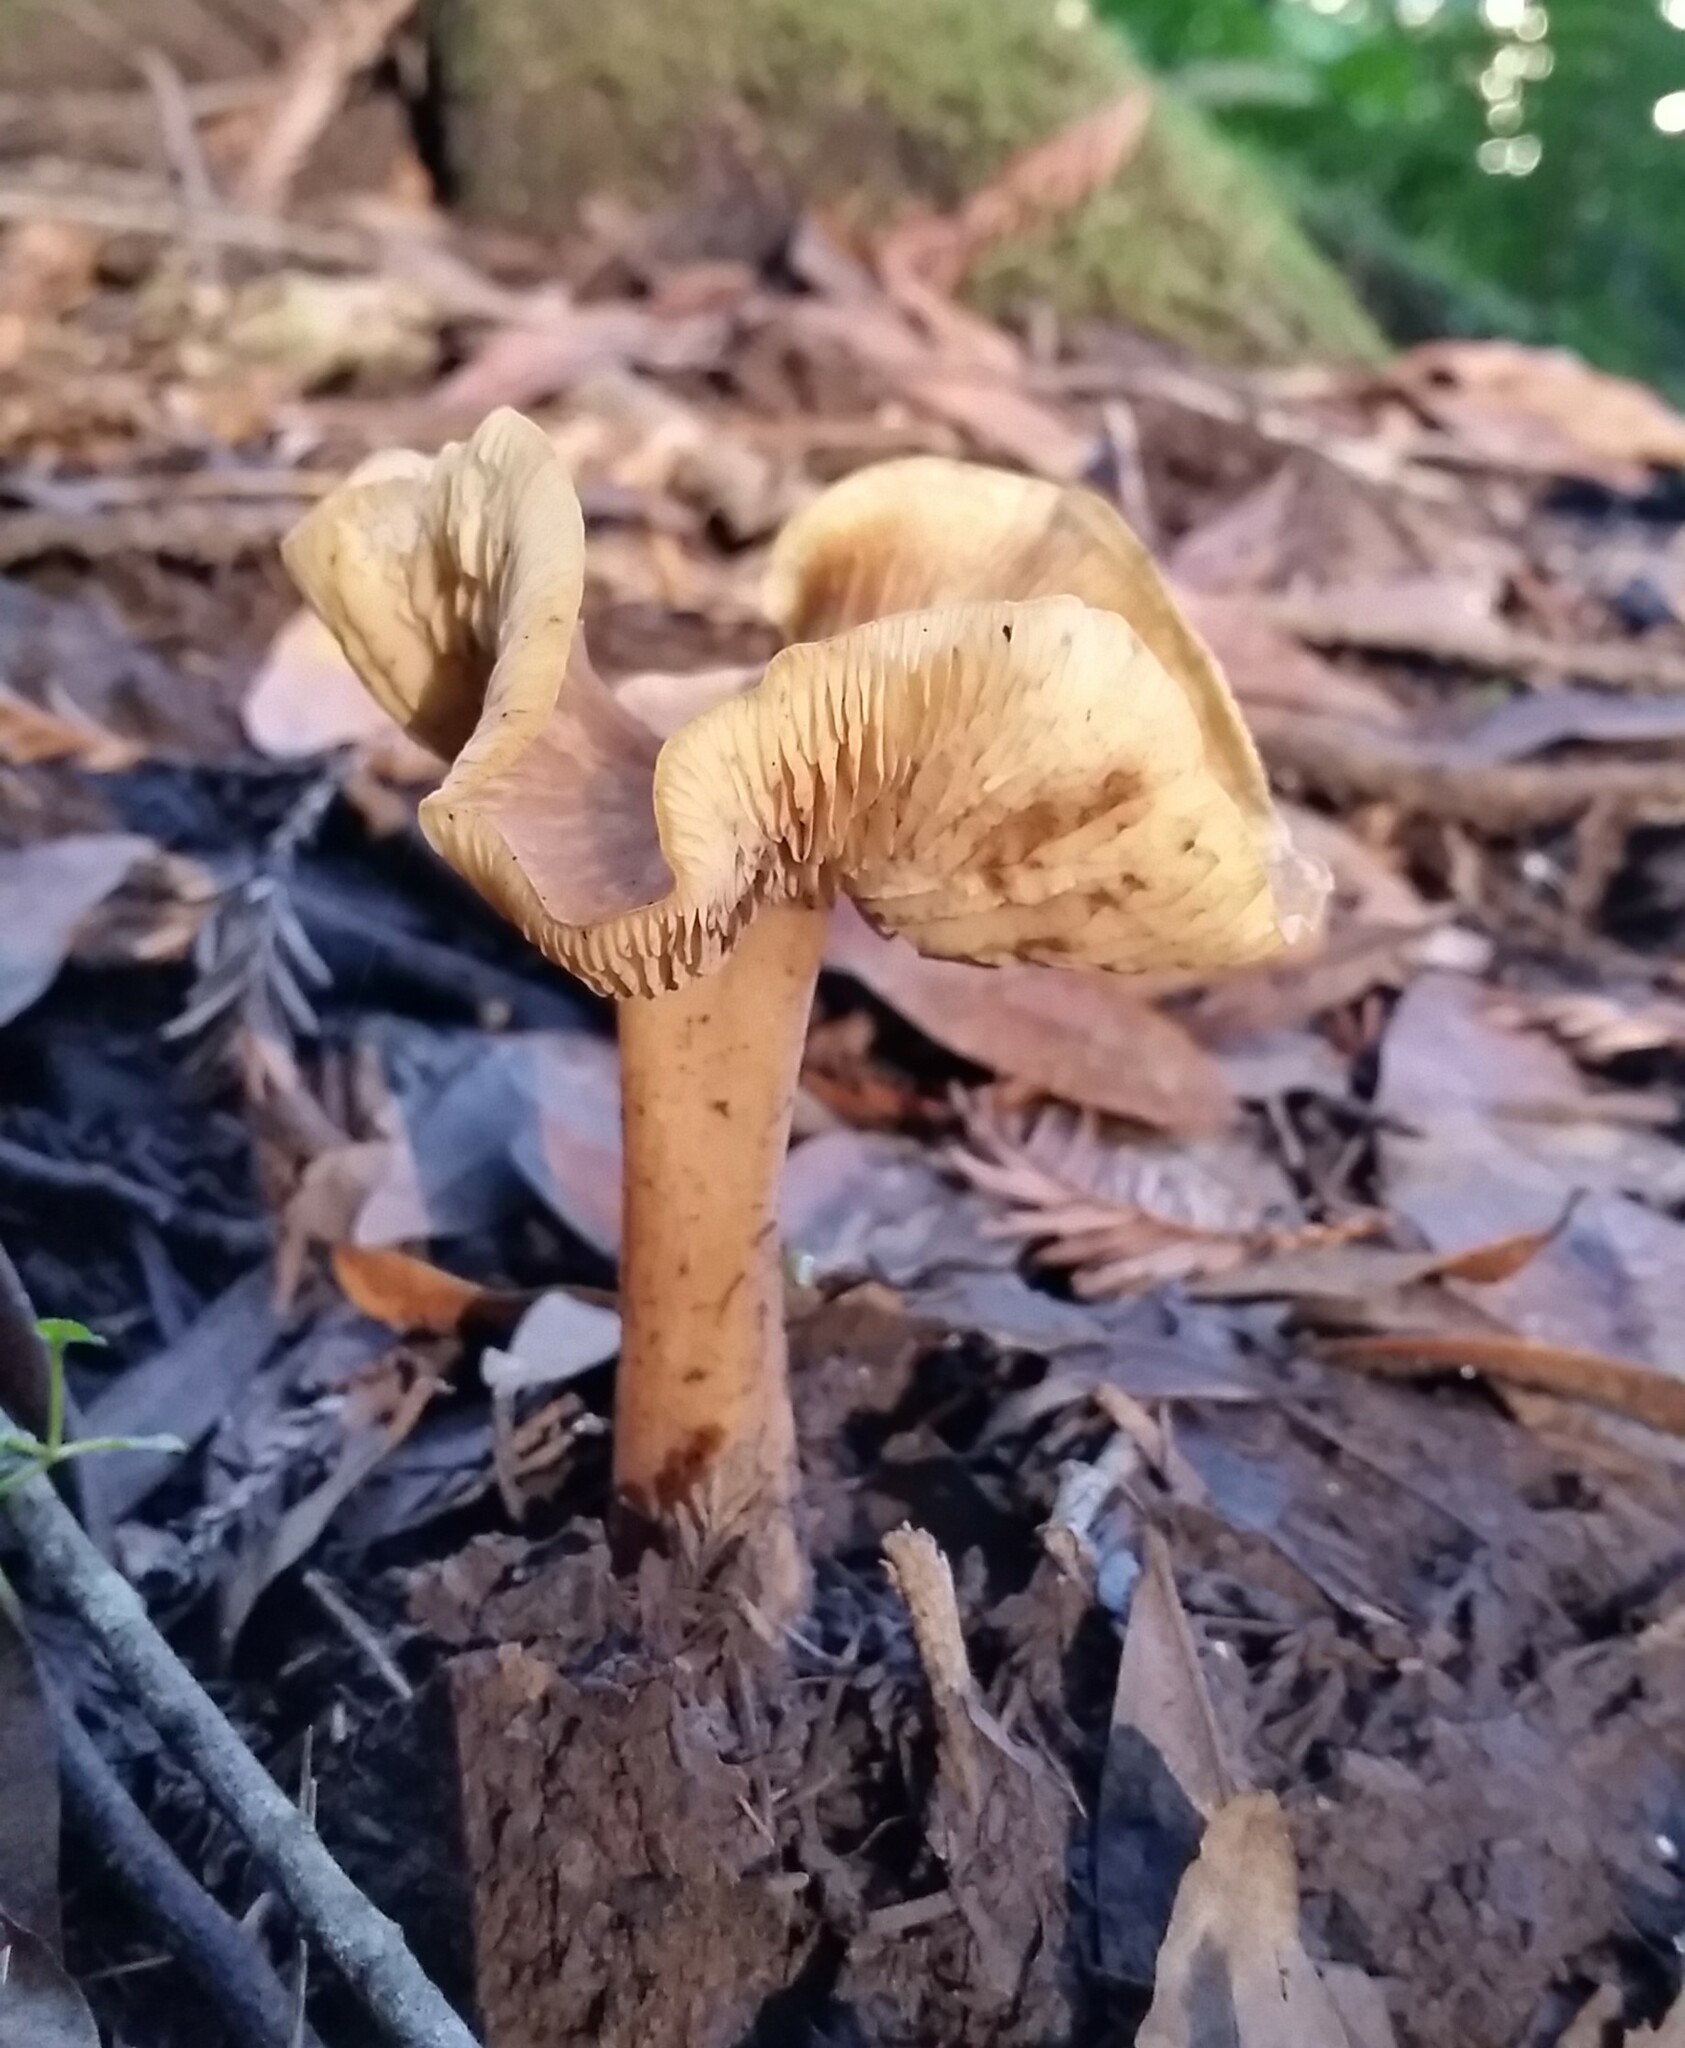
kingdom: Fungi
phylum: Basidiomycota
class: Agaricomycetes
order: Agaricales
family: Tricholomataceae
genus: Caulorhiza
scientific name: Caulorhiza umbonata
